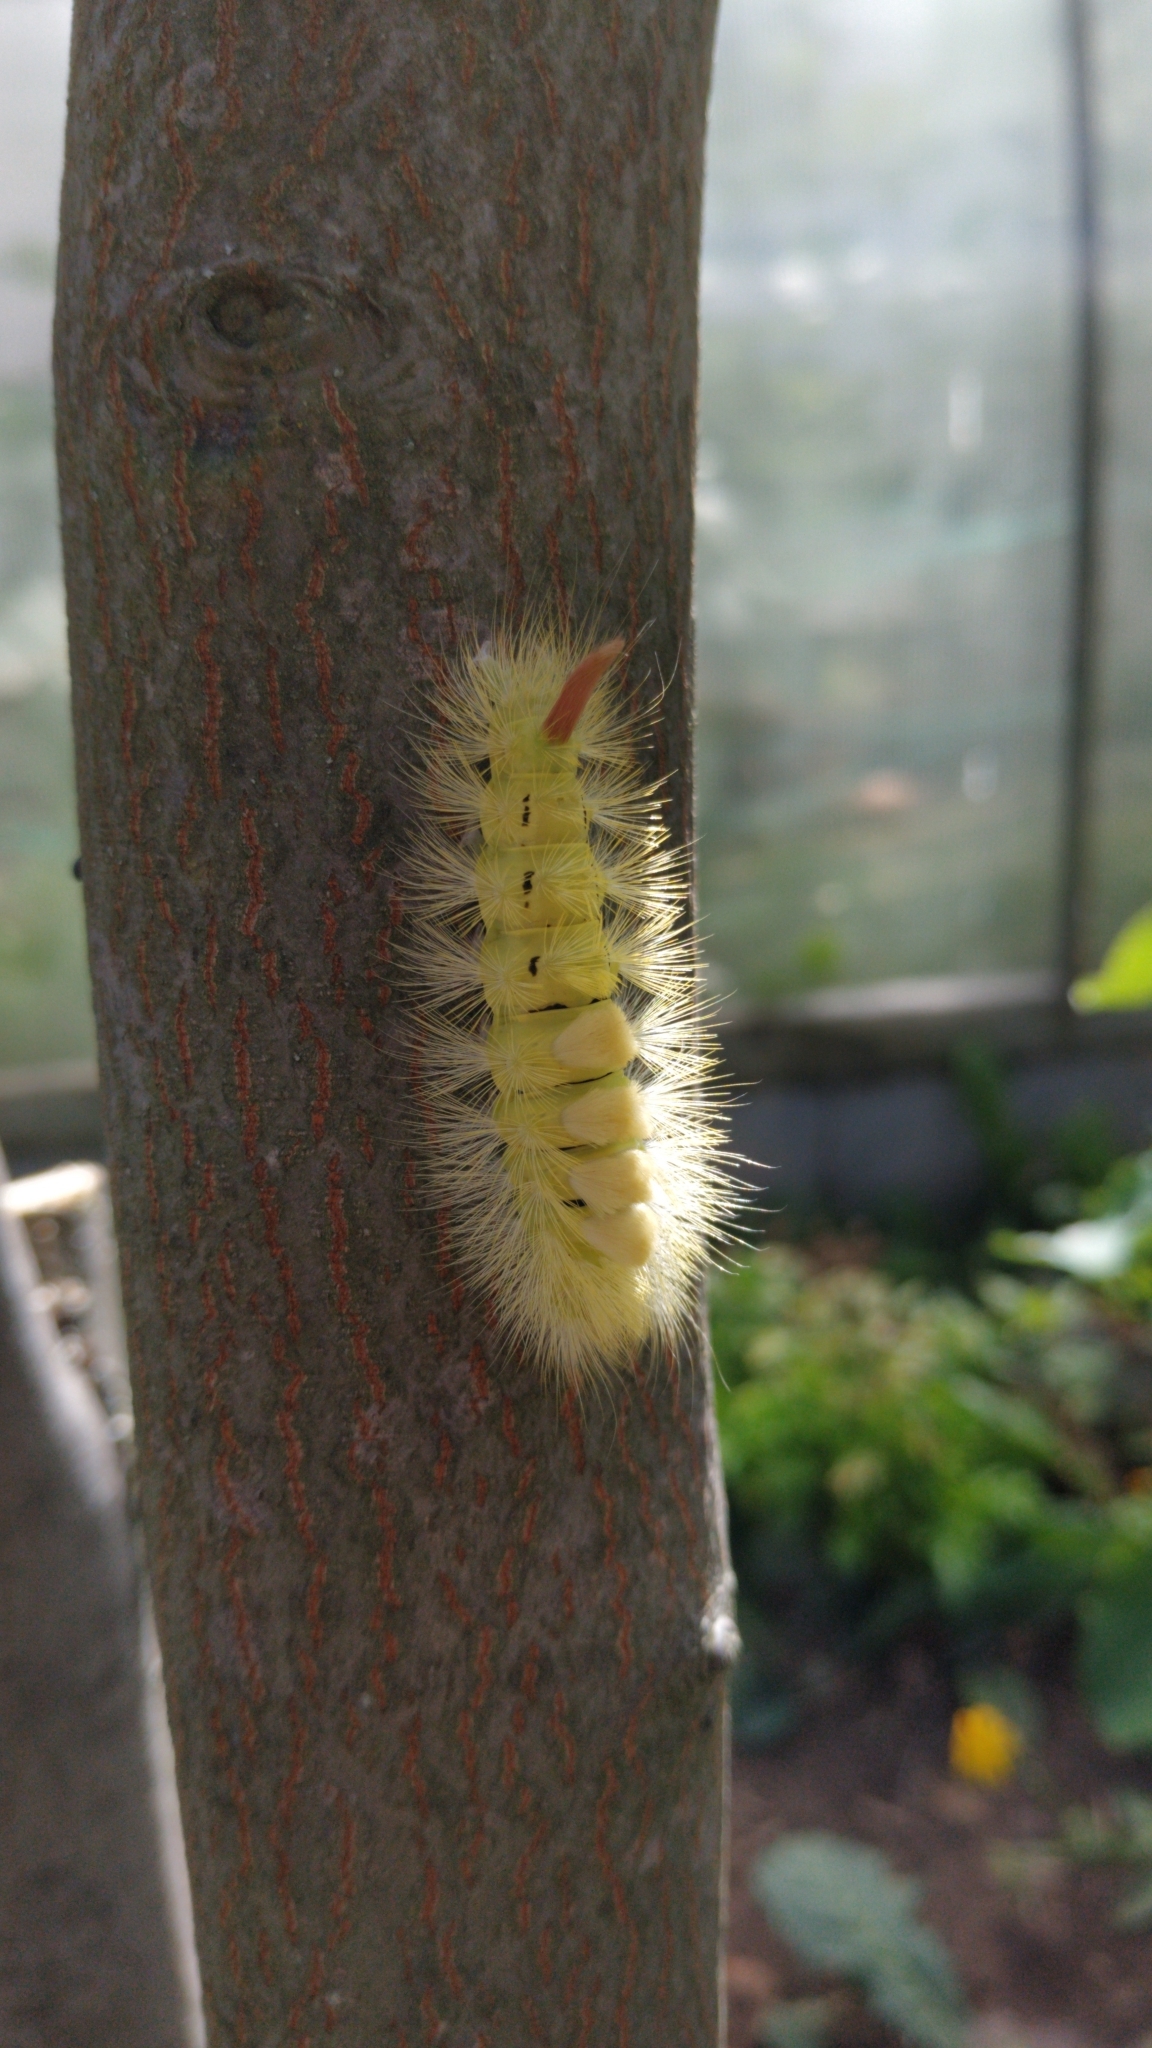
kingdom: Animalia
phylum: Arthropoda
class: Insecta
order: Lepidoptera
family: Erebidae
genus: Calliteara
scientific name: Calliteara pudibunda
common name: Pale tussock
